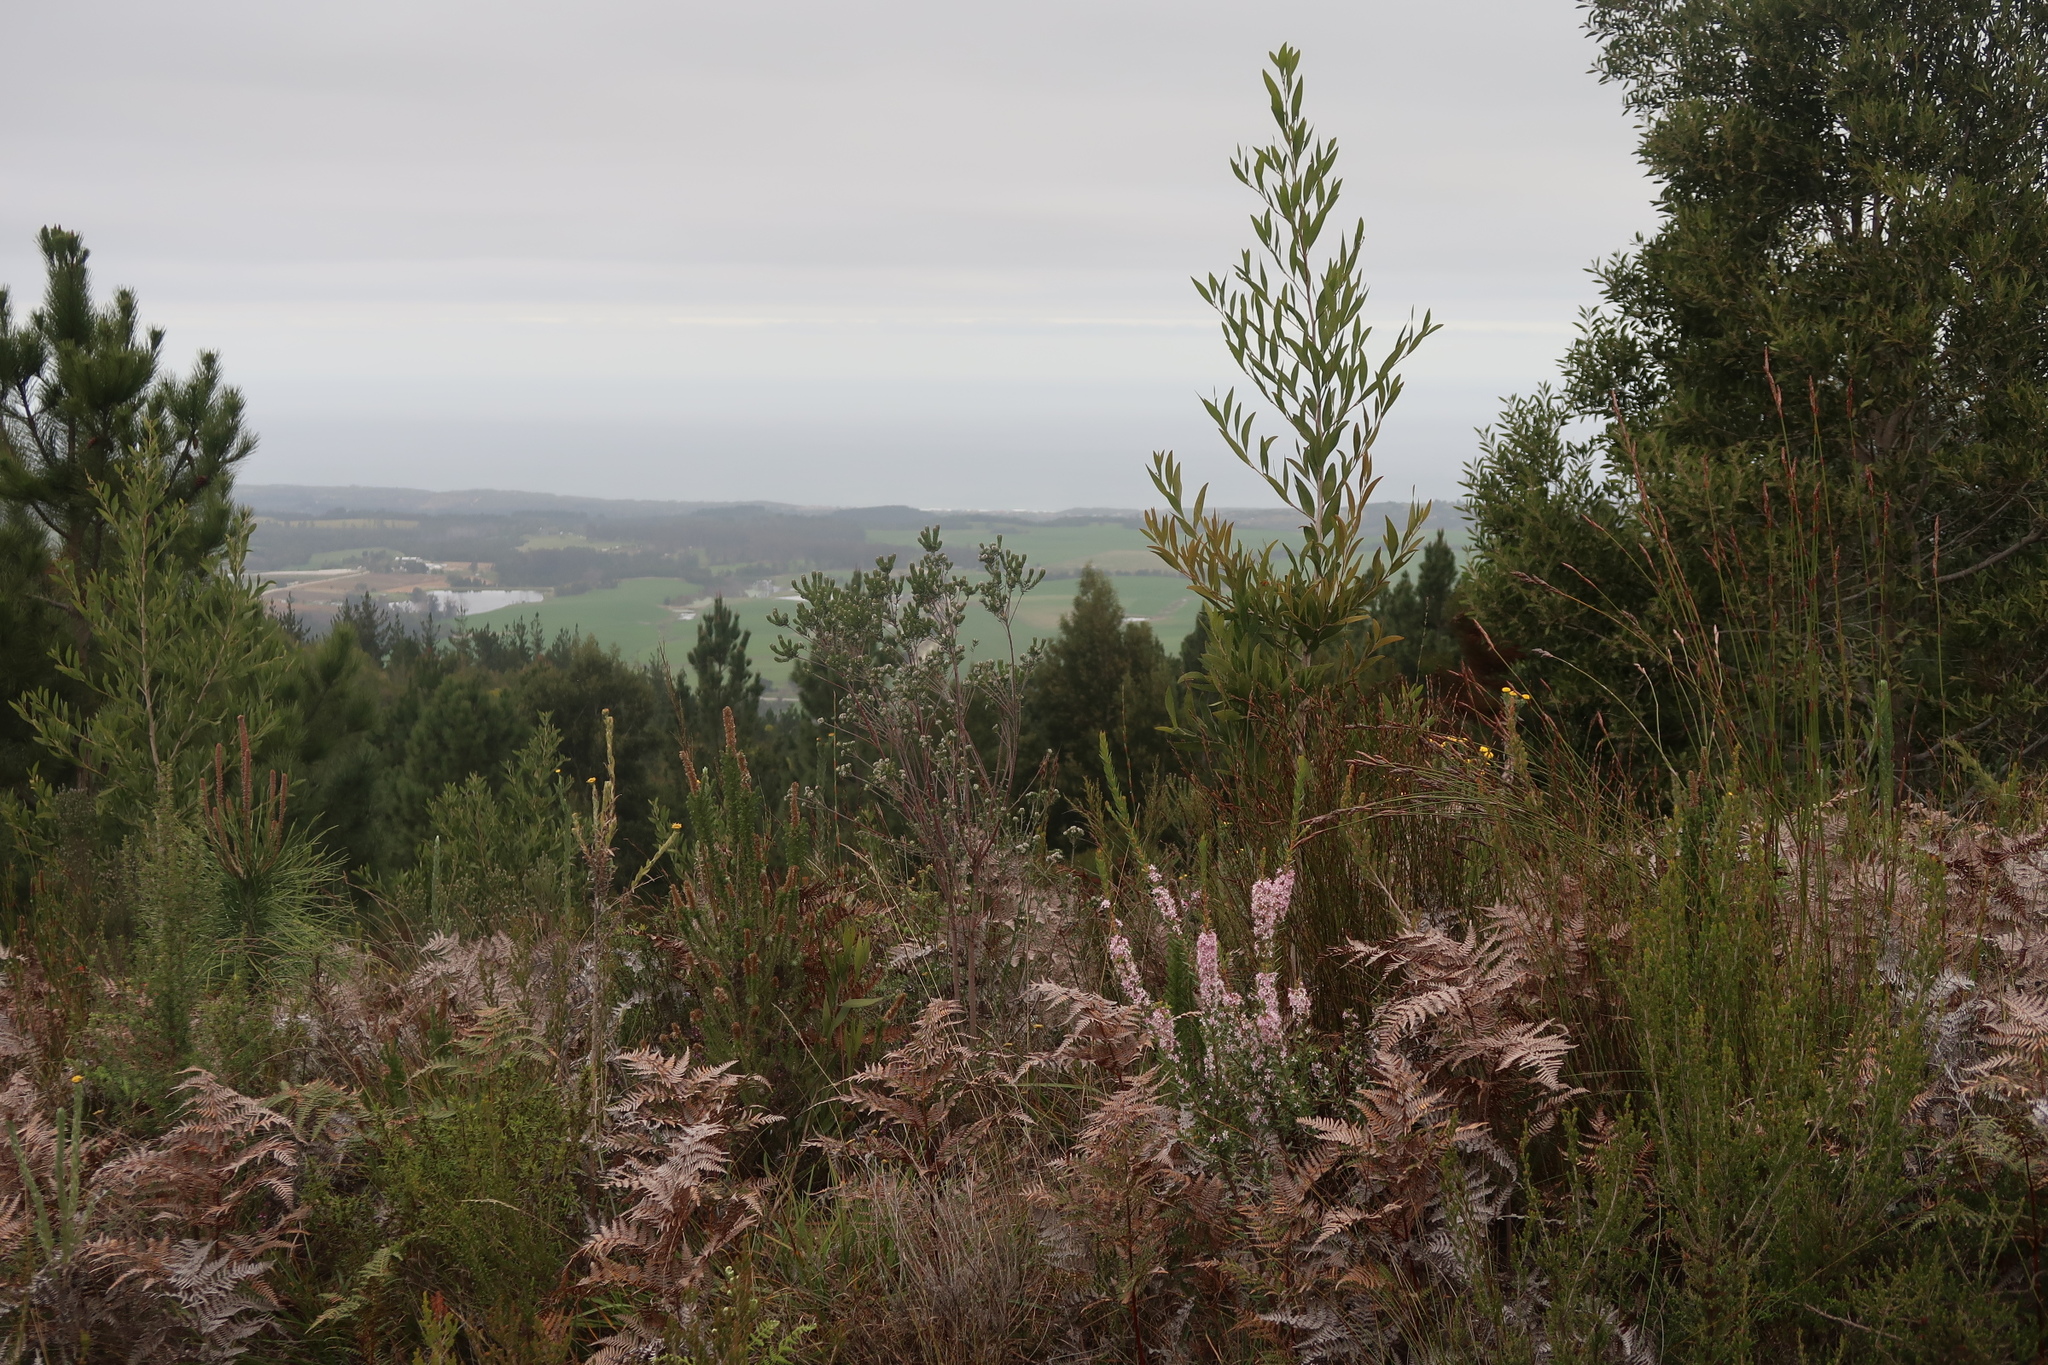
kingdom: Plantae
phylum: Tracheophyta
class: Polypodiopsida
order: Polypodiales
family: Dennstaedtiaceae
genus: Pteridium
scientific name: Pteridium aquilinum
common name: Bracken
